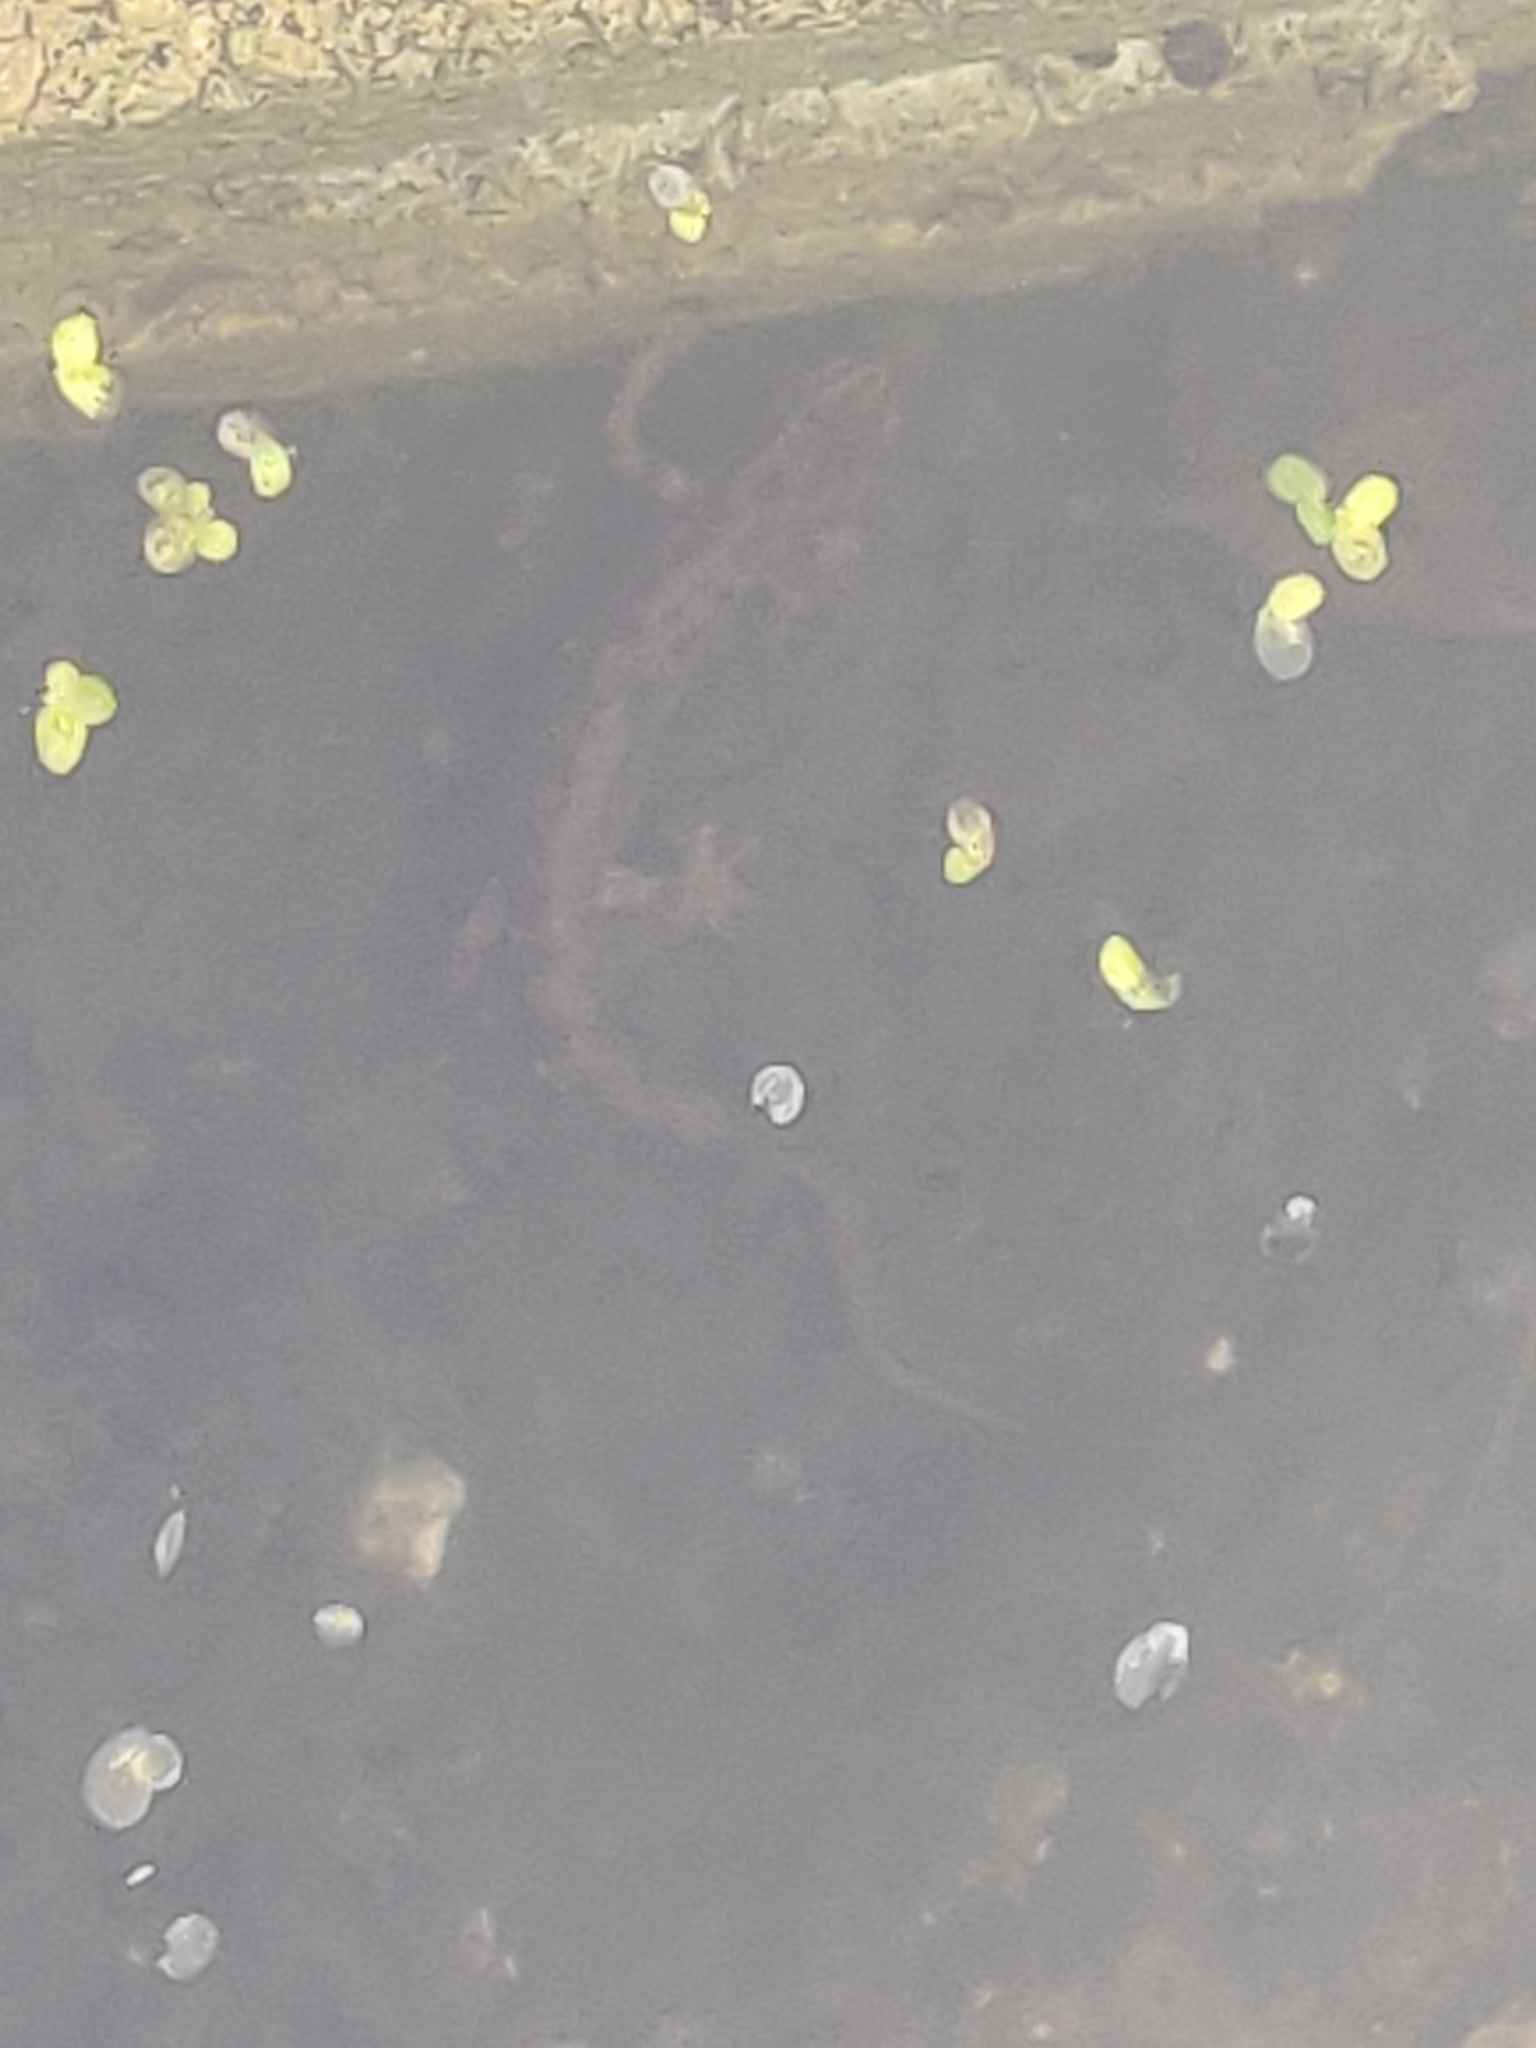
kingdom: Animalia
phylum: Chordata
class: Amphibia
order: Caudata
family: Salamandridae
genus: Lissotriton
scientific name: Lissotriton vulgaris
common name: Smooth newt
